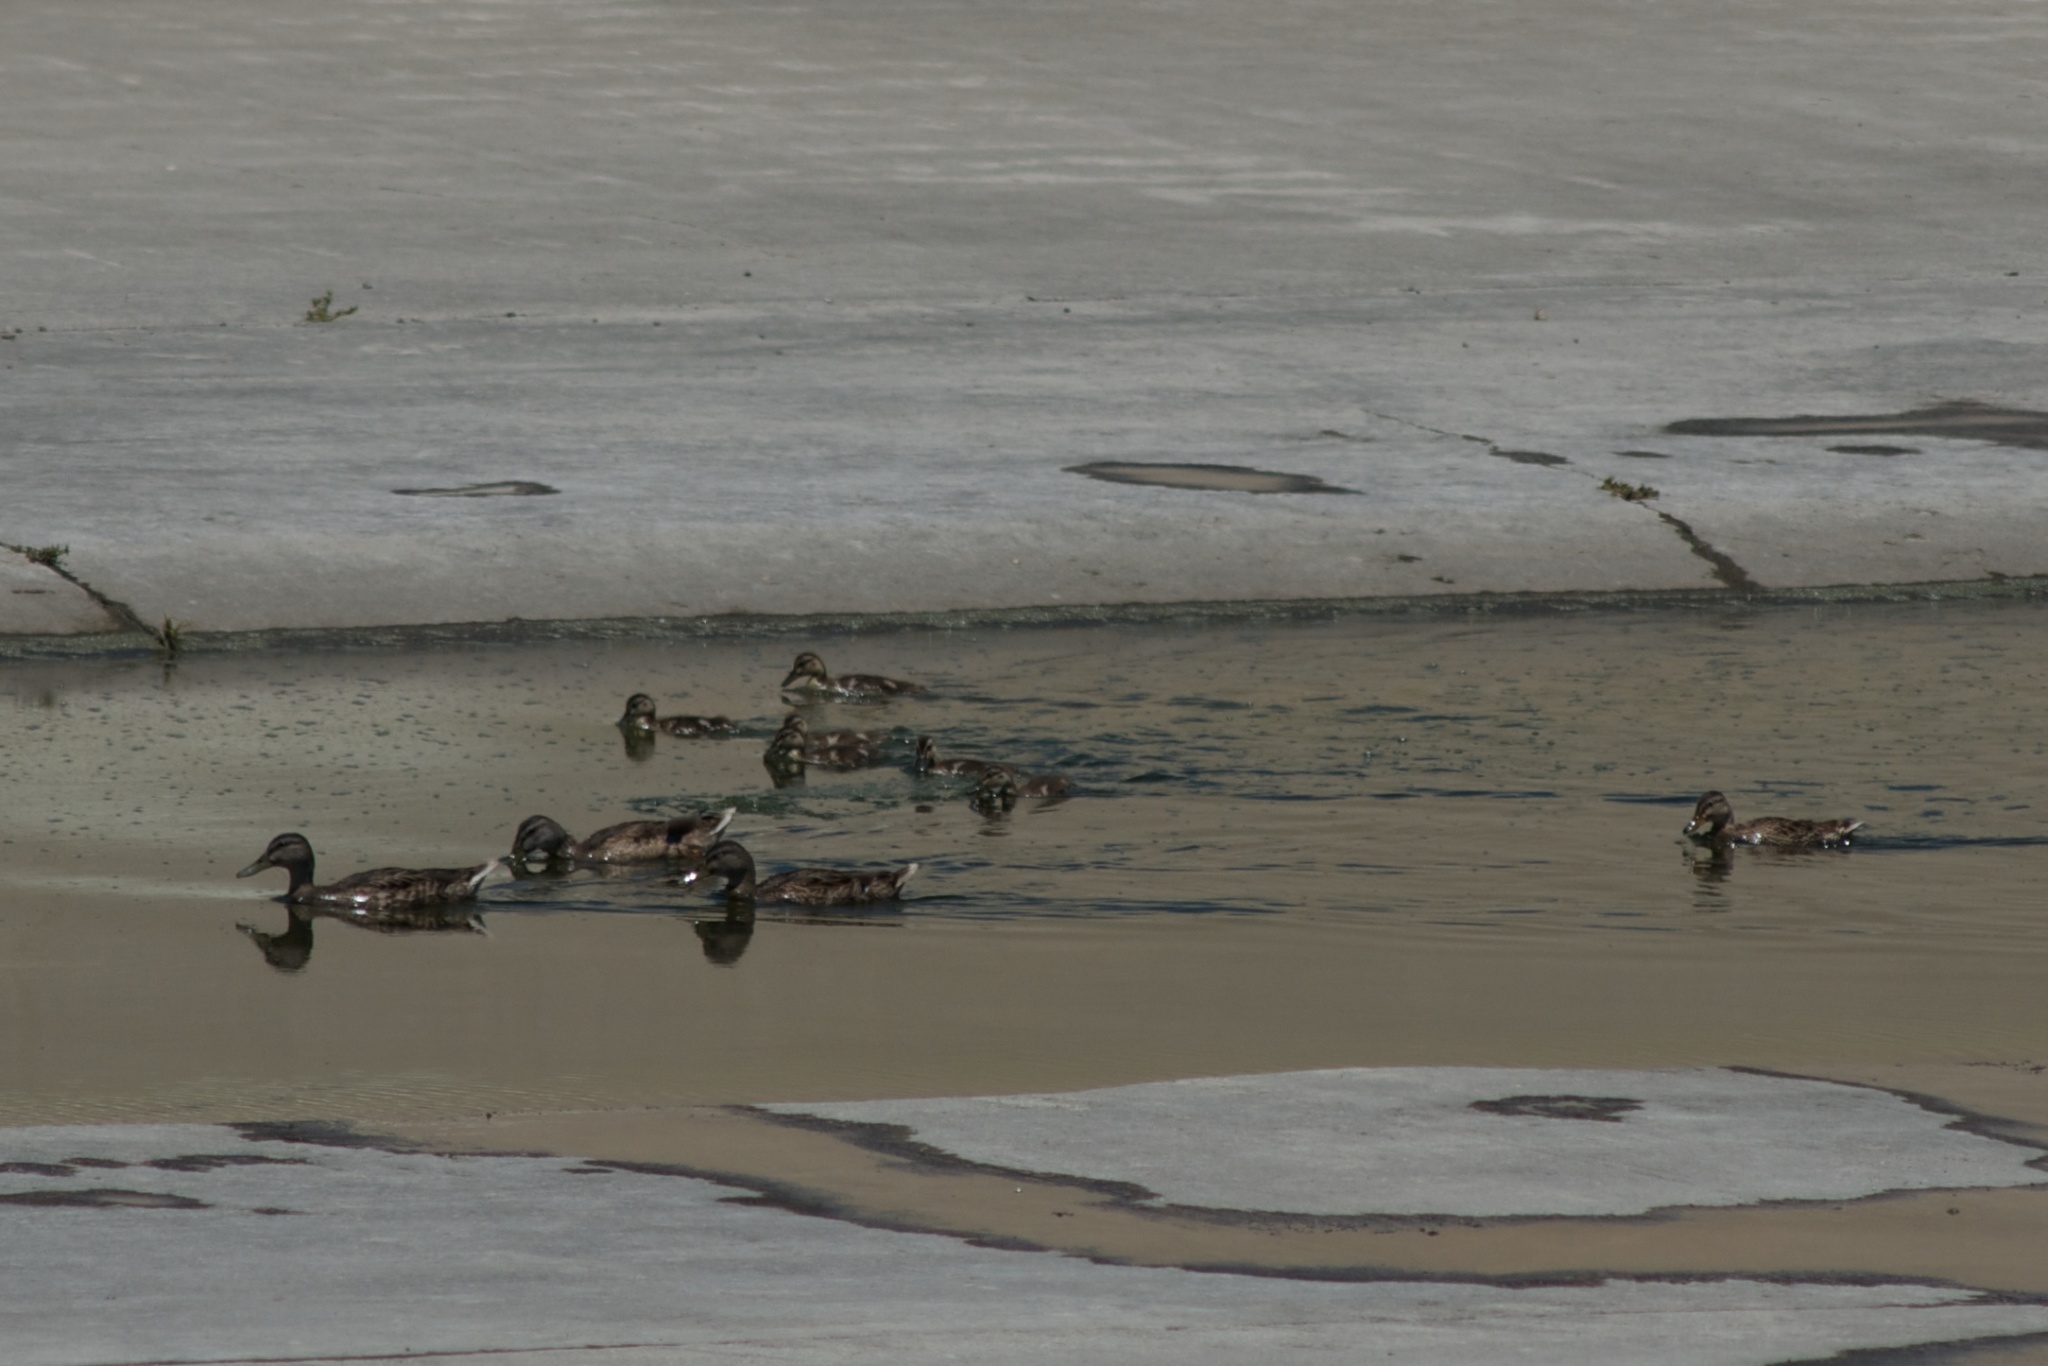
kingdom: Animalia
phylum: Chordata
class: Aves
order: Anseriformes
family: Anatidae
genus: Anas
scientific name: Anas platyrhynchos
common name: Mallard
